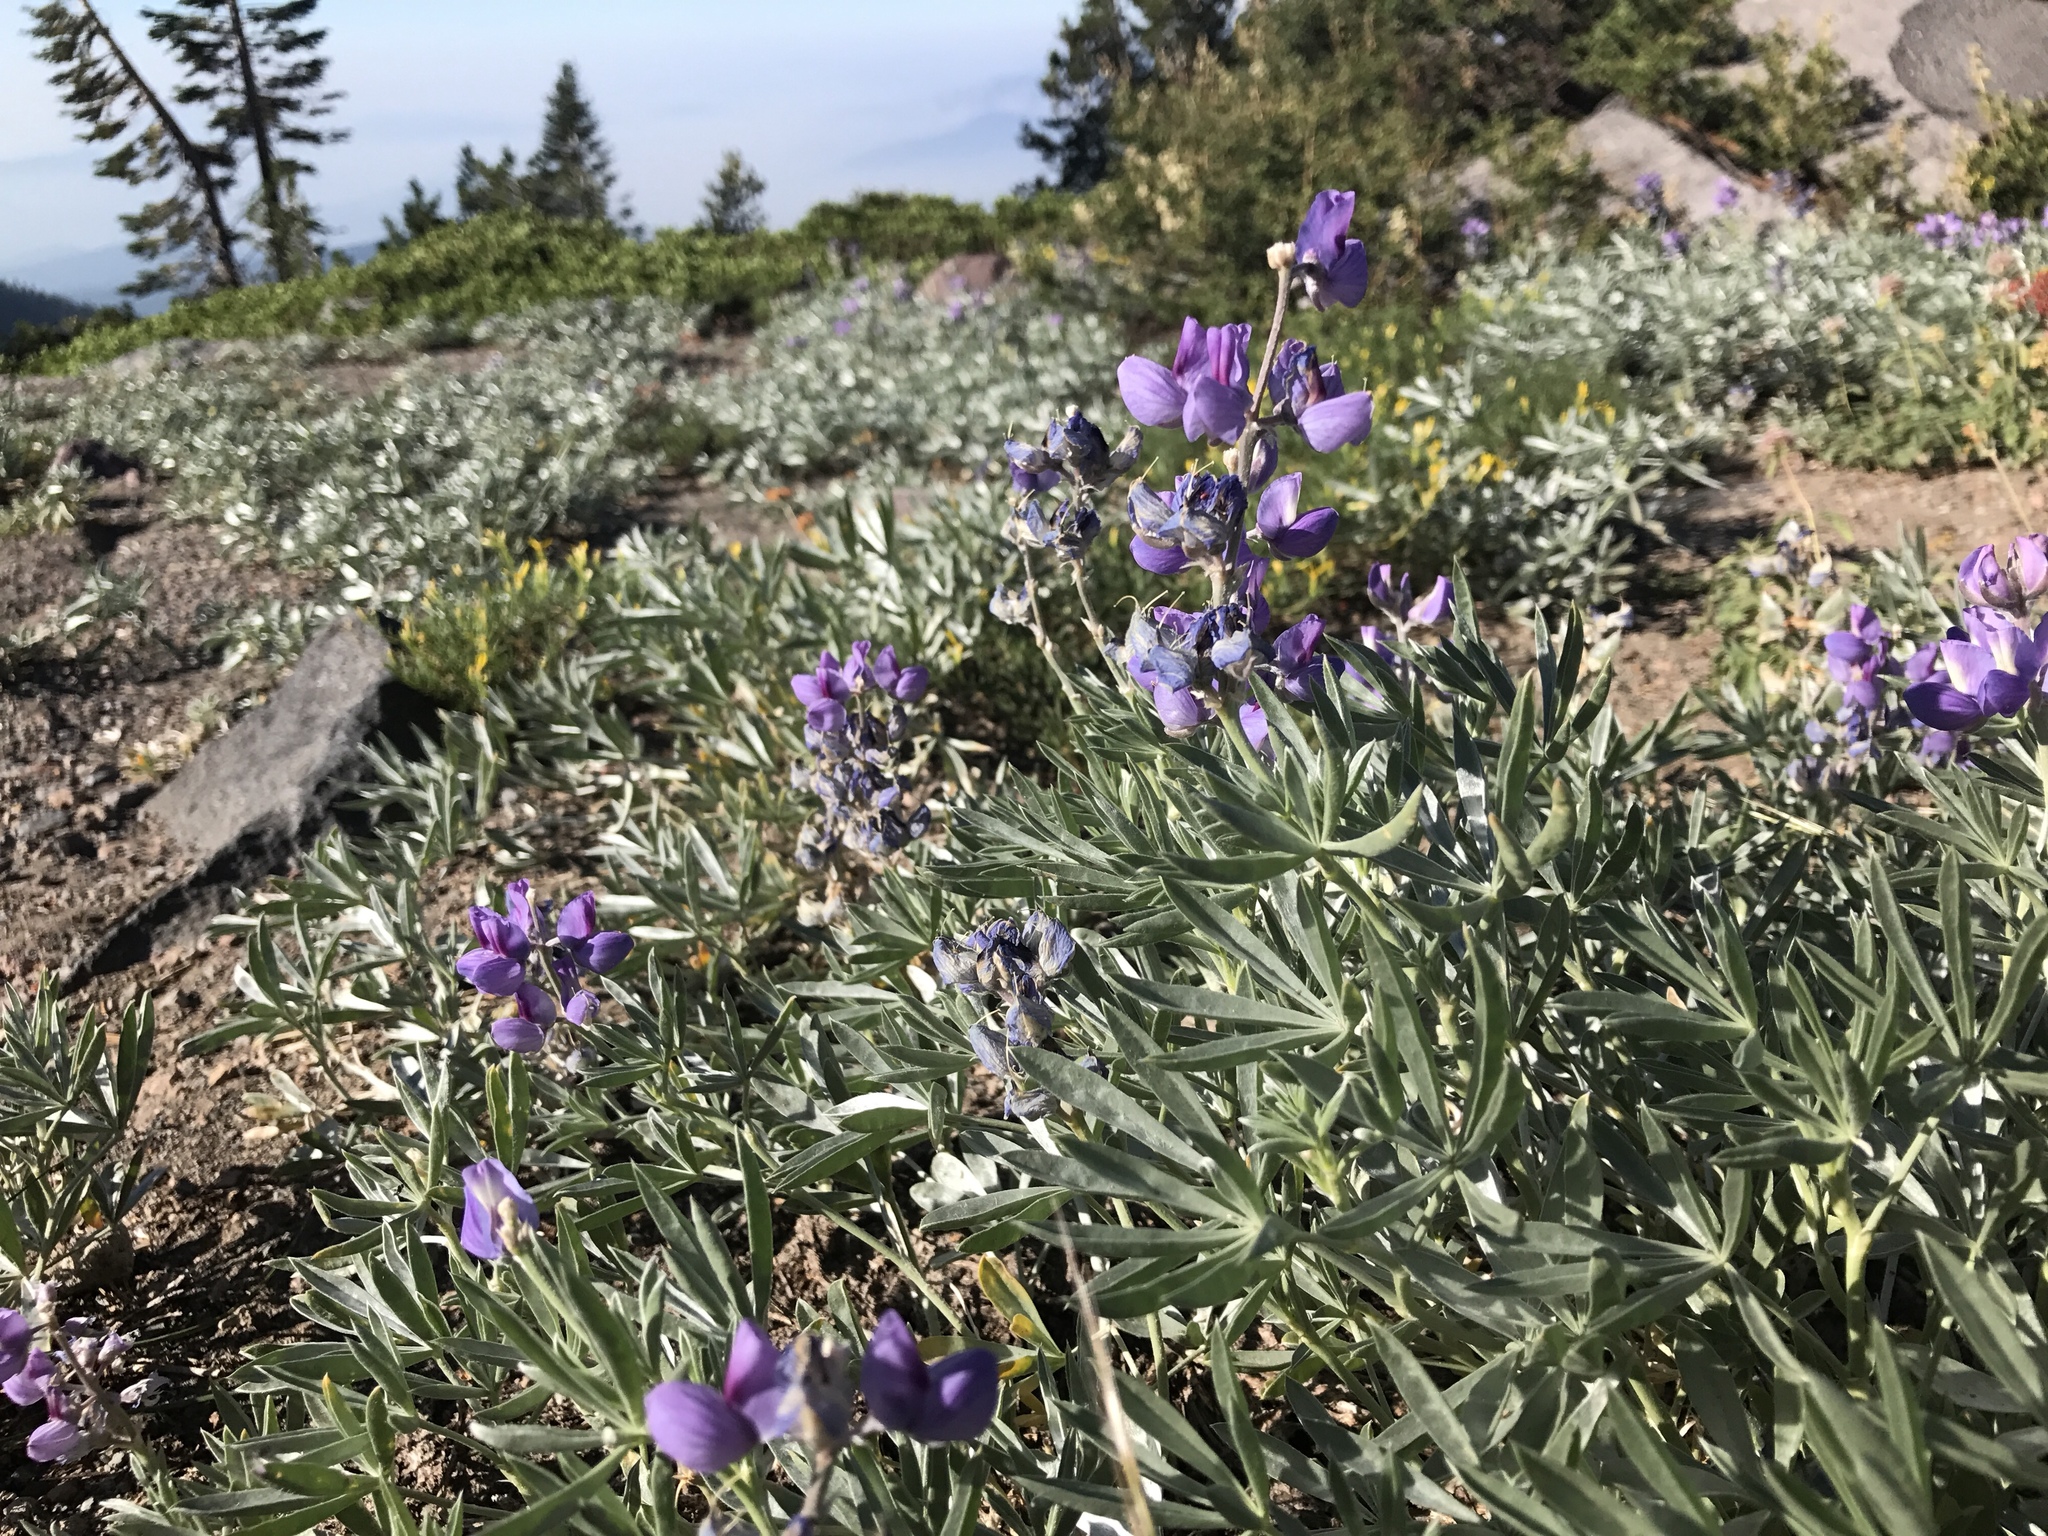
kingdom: Plantae
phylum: Tracheophyta
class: Magnoliopsida
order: Fabales
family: Fabaceae
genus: Lupinus
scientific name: Lupinus obtusilobus
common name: Blunt-lobe lupine
